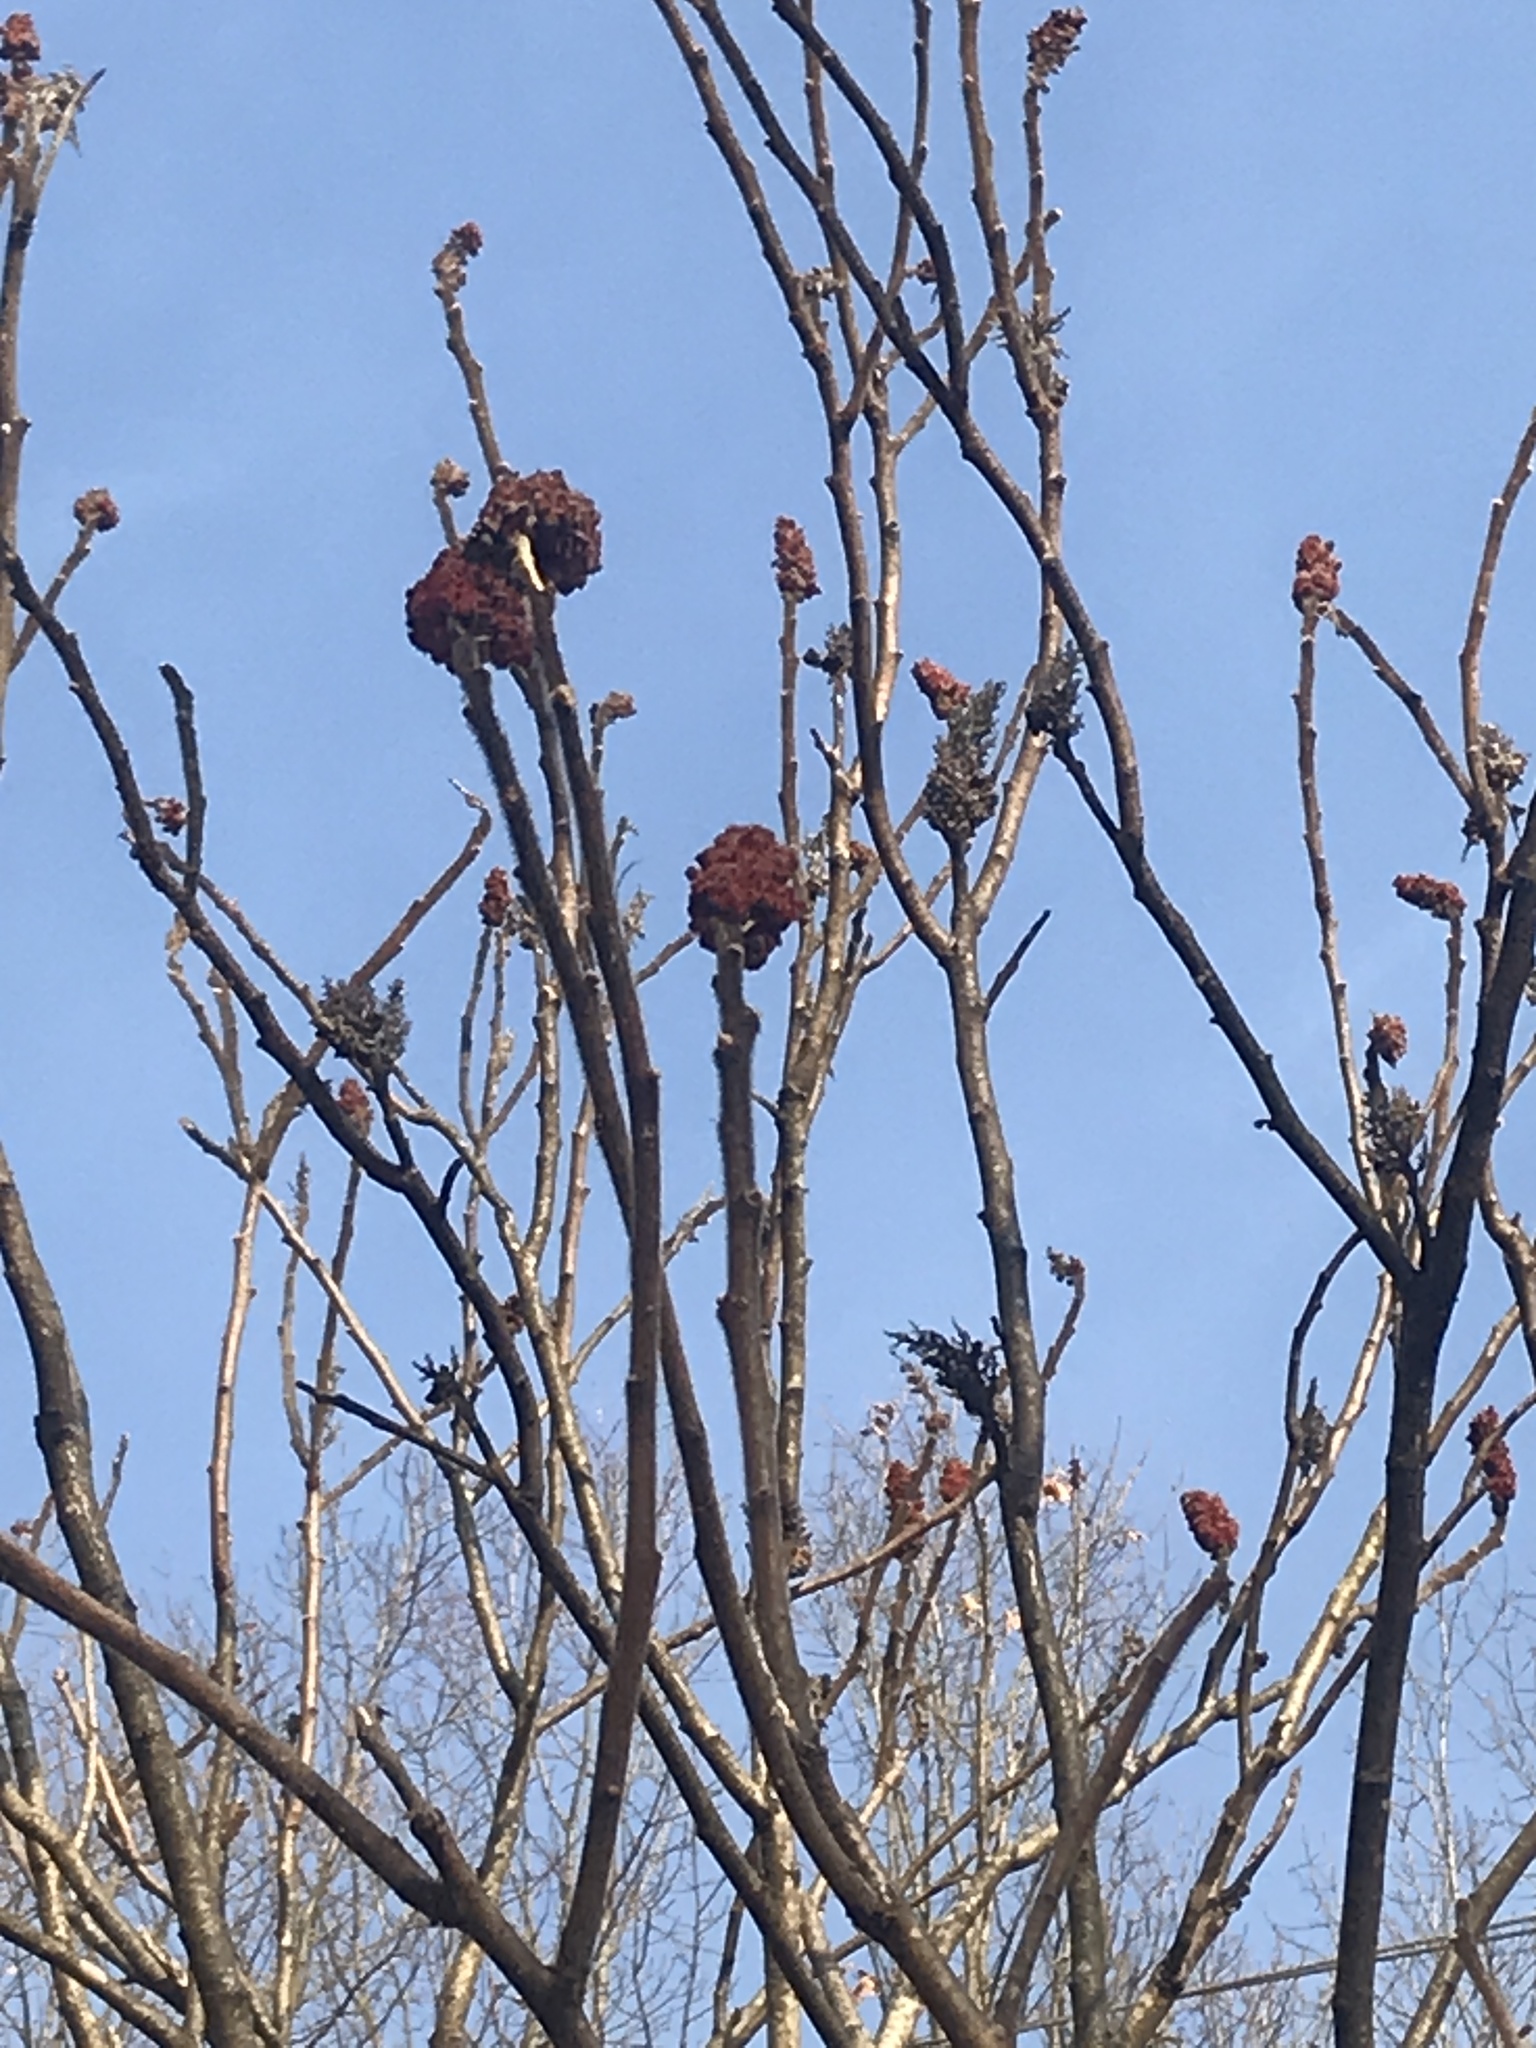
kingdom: Plantae
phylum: Tracheophyta
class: Magnoliopsida
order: Sapindales
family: Anacardiaceae
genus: Rhus
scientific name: Rhus typhina
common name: Staghorn sumac
